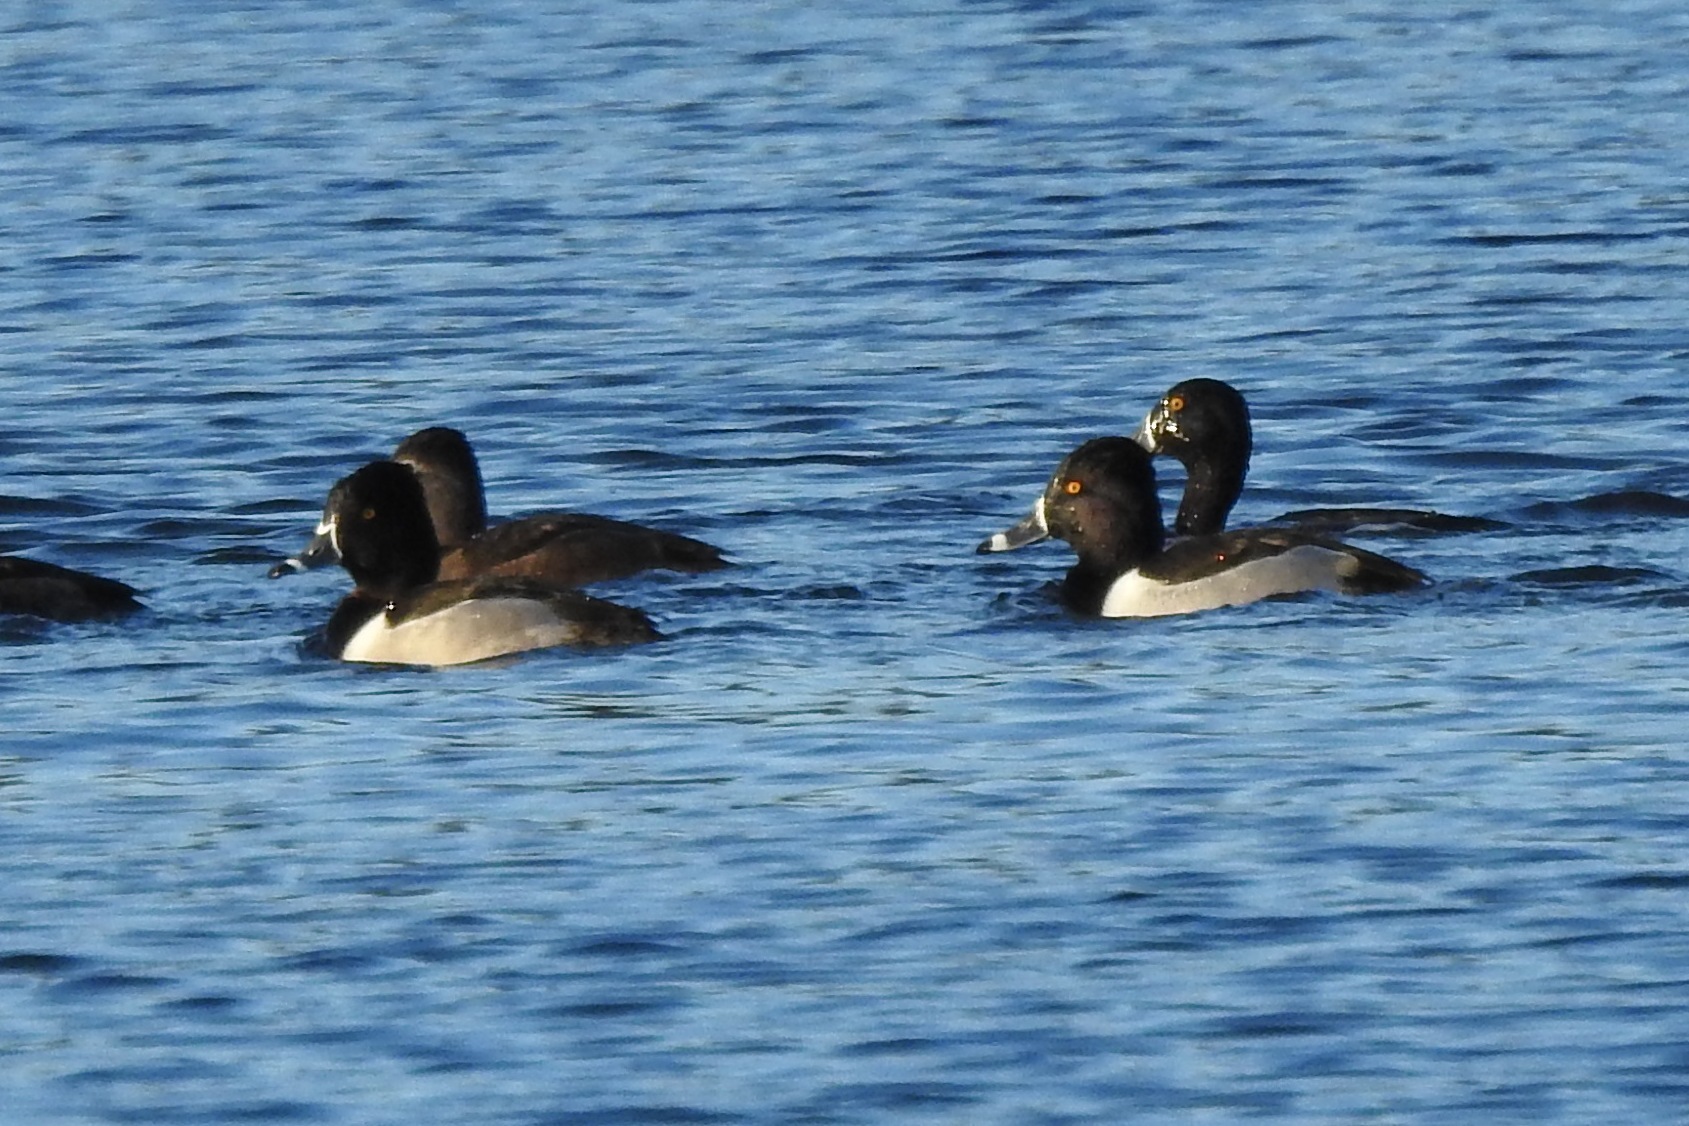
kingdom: Animalia
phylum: Chordata
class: Aves
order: Anseriformes
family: Anatidae
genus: Aythya
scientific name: Aythya collaris
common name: Ring-necked duck
